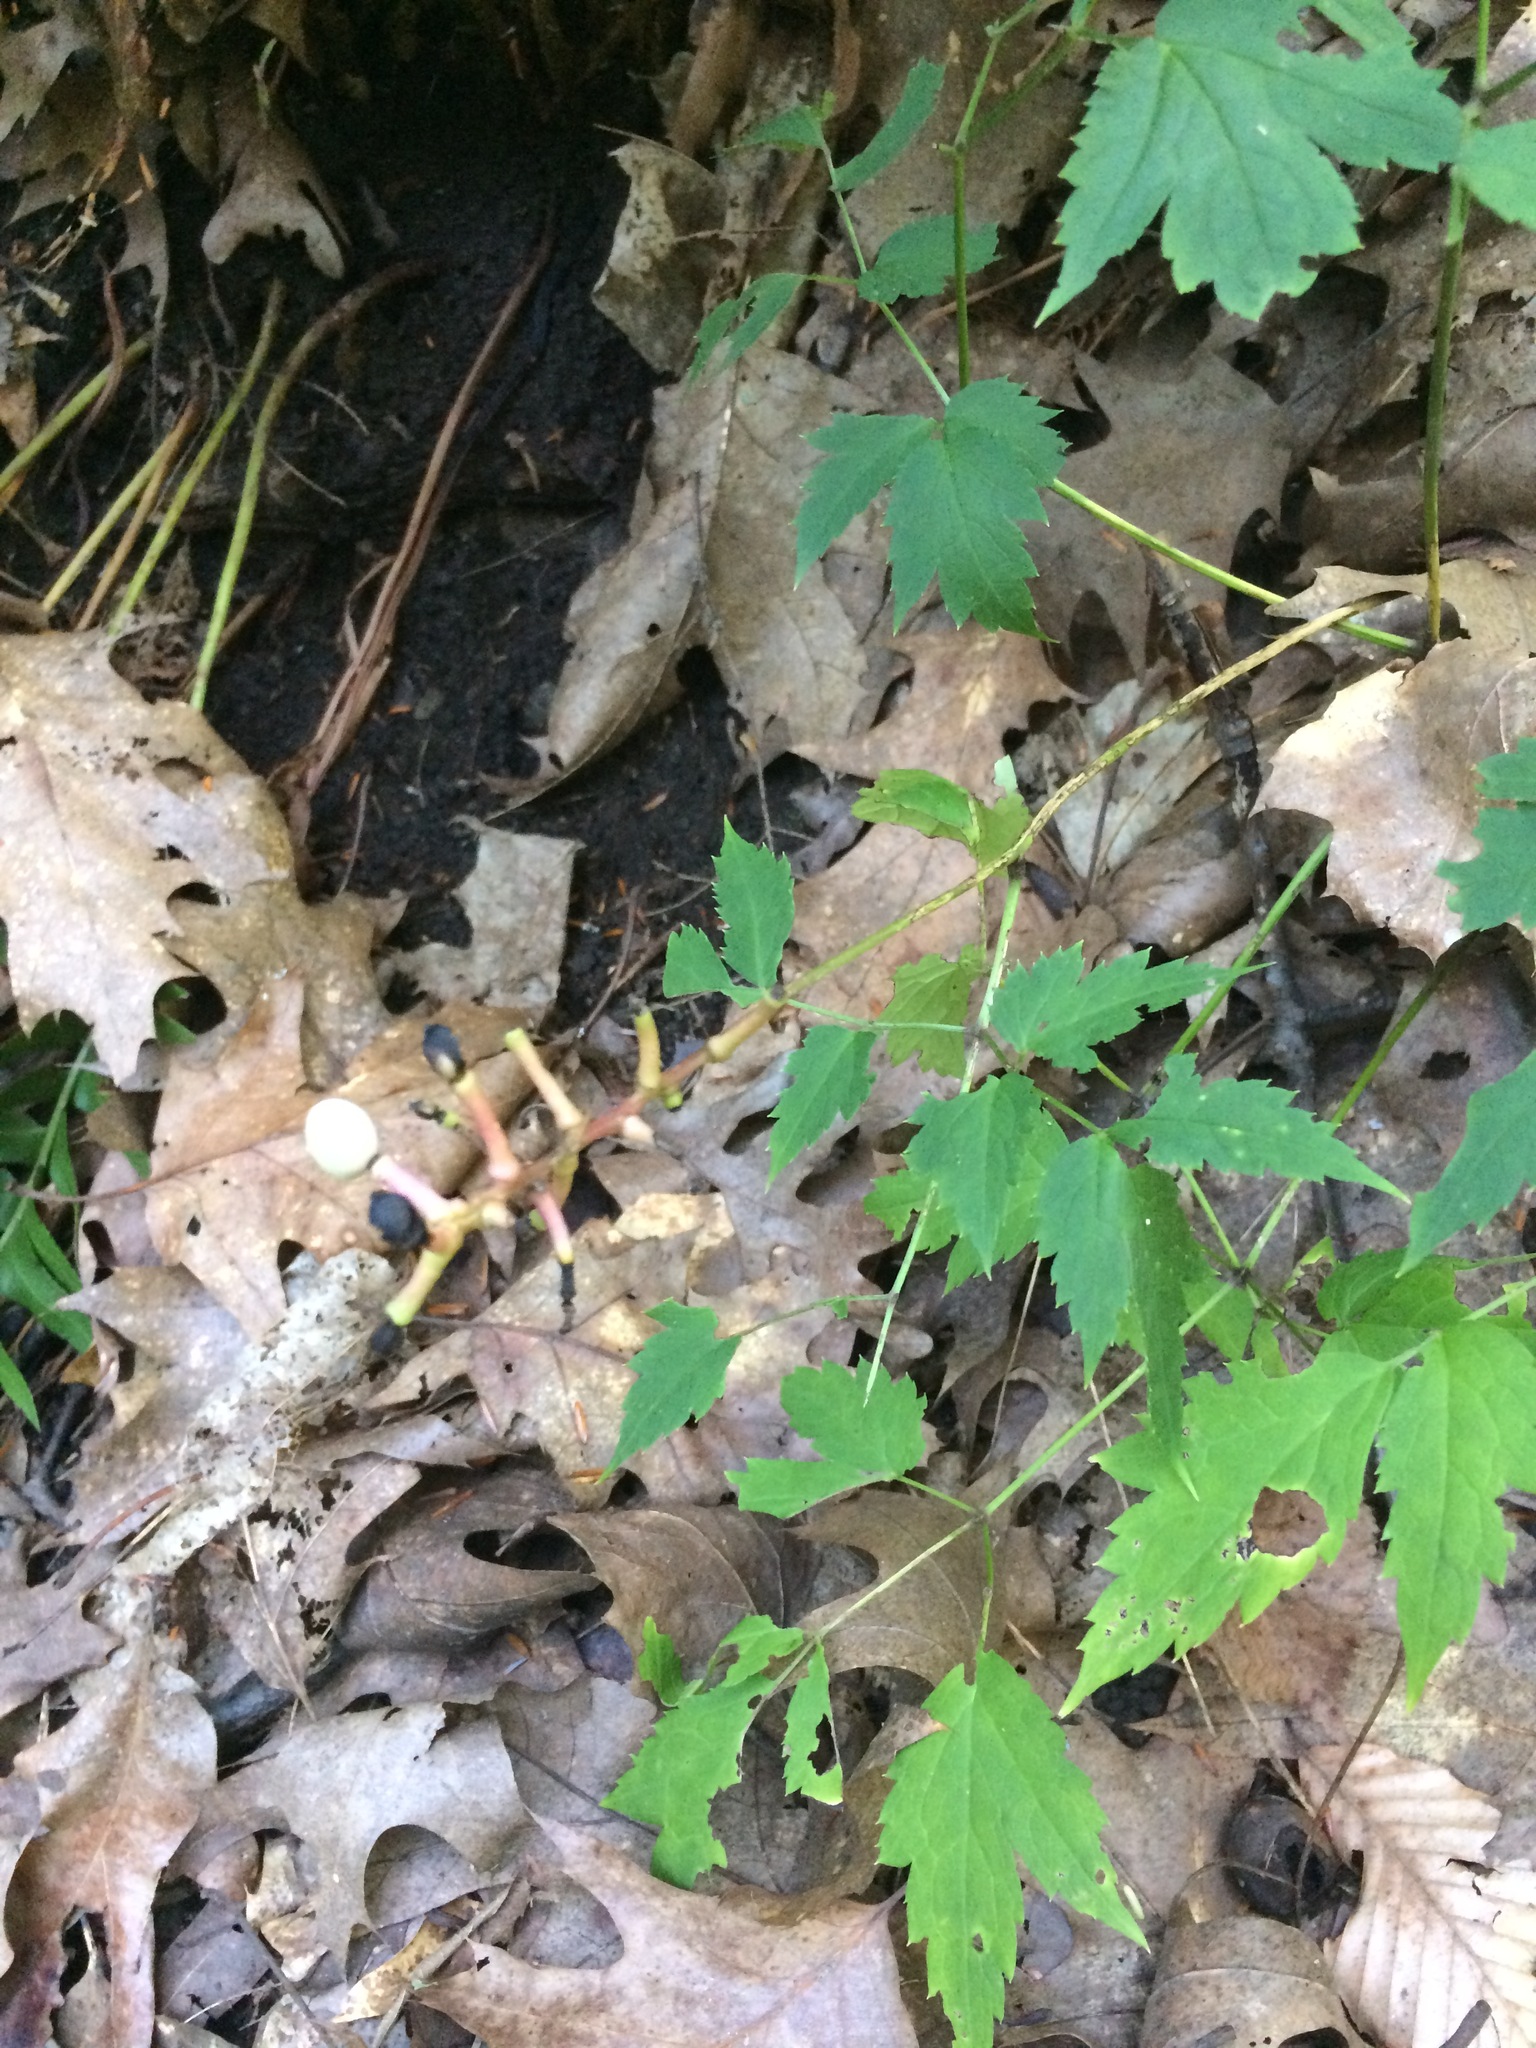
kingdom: Plantae
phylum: Tracheophyta
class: Magnoliopsida
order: Ranunculales
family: Ranunculaceae
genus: Actaea
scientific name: Actaea pachypoda
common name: Doll's-eyes
